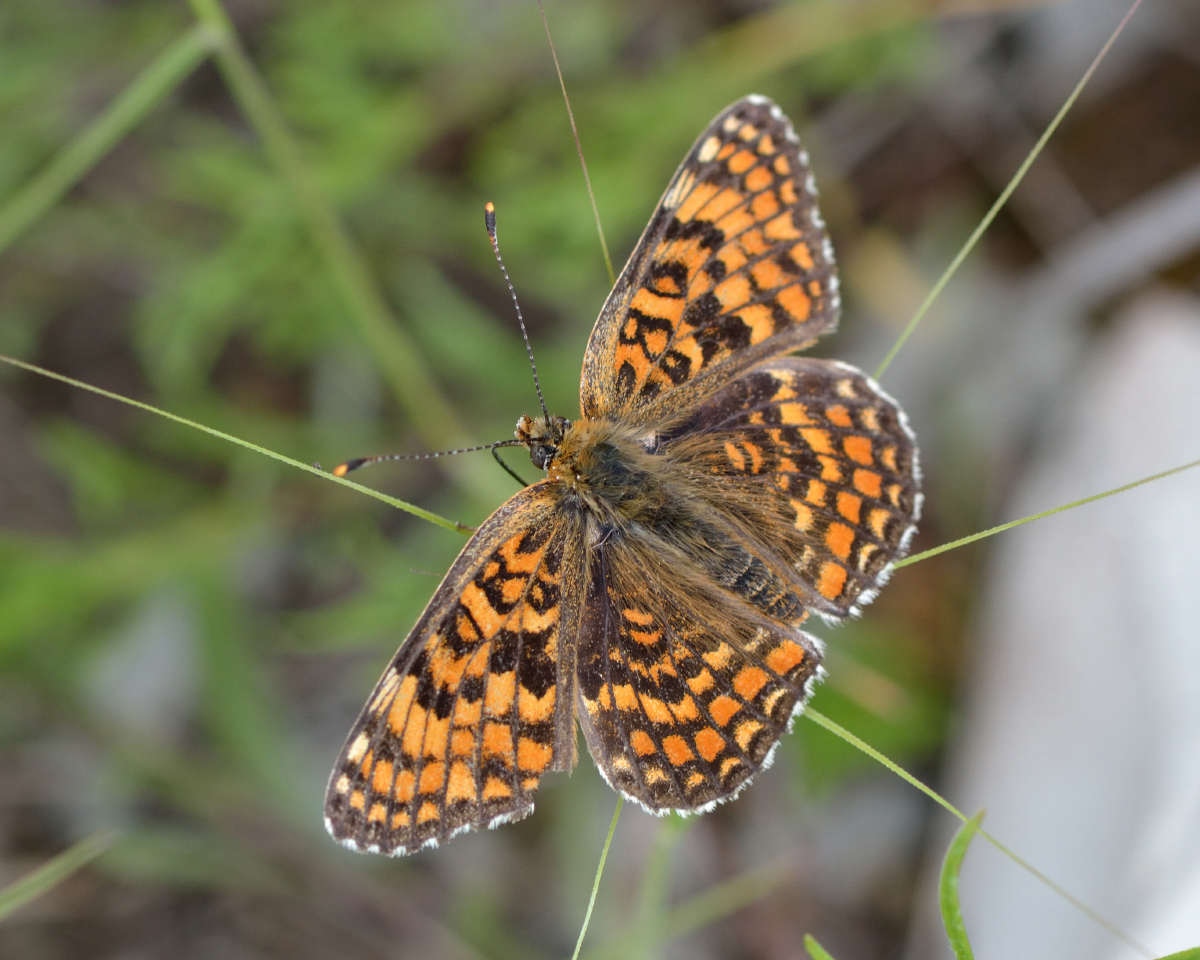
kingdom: Animalia
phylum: Arthropoda
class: Insecta
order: Lepidoptera
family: Nymphalidae
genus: Melitaea
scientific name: Melitaea phoebe
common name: Knapweed fritillary
